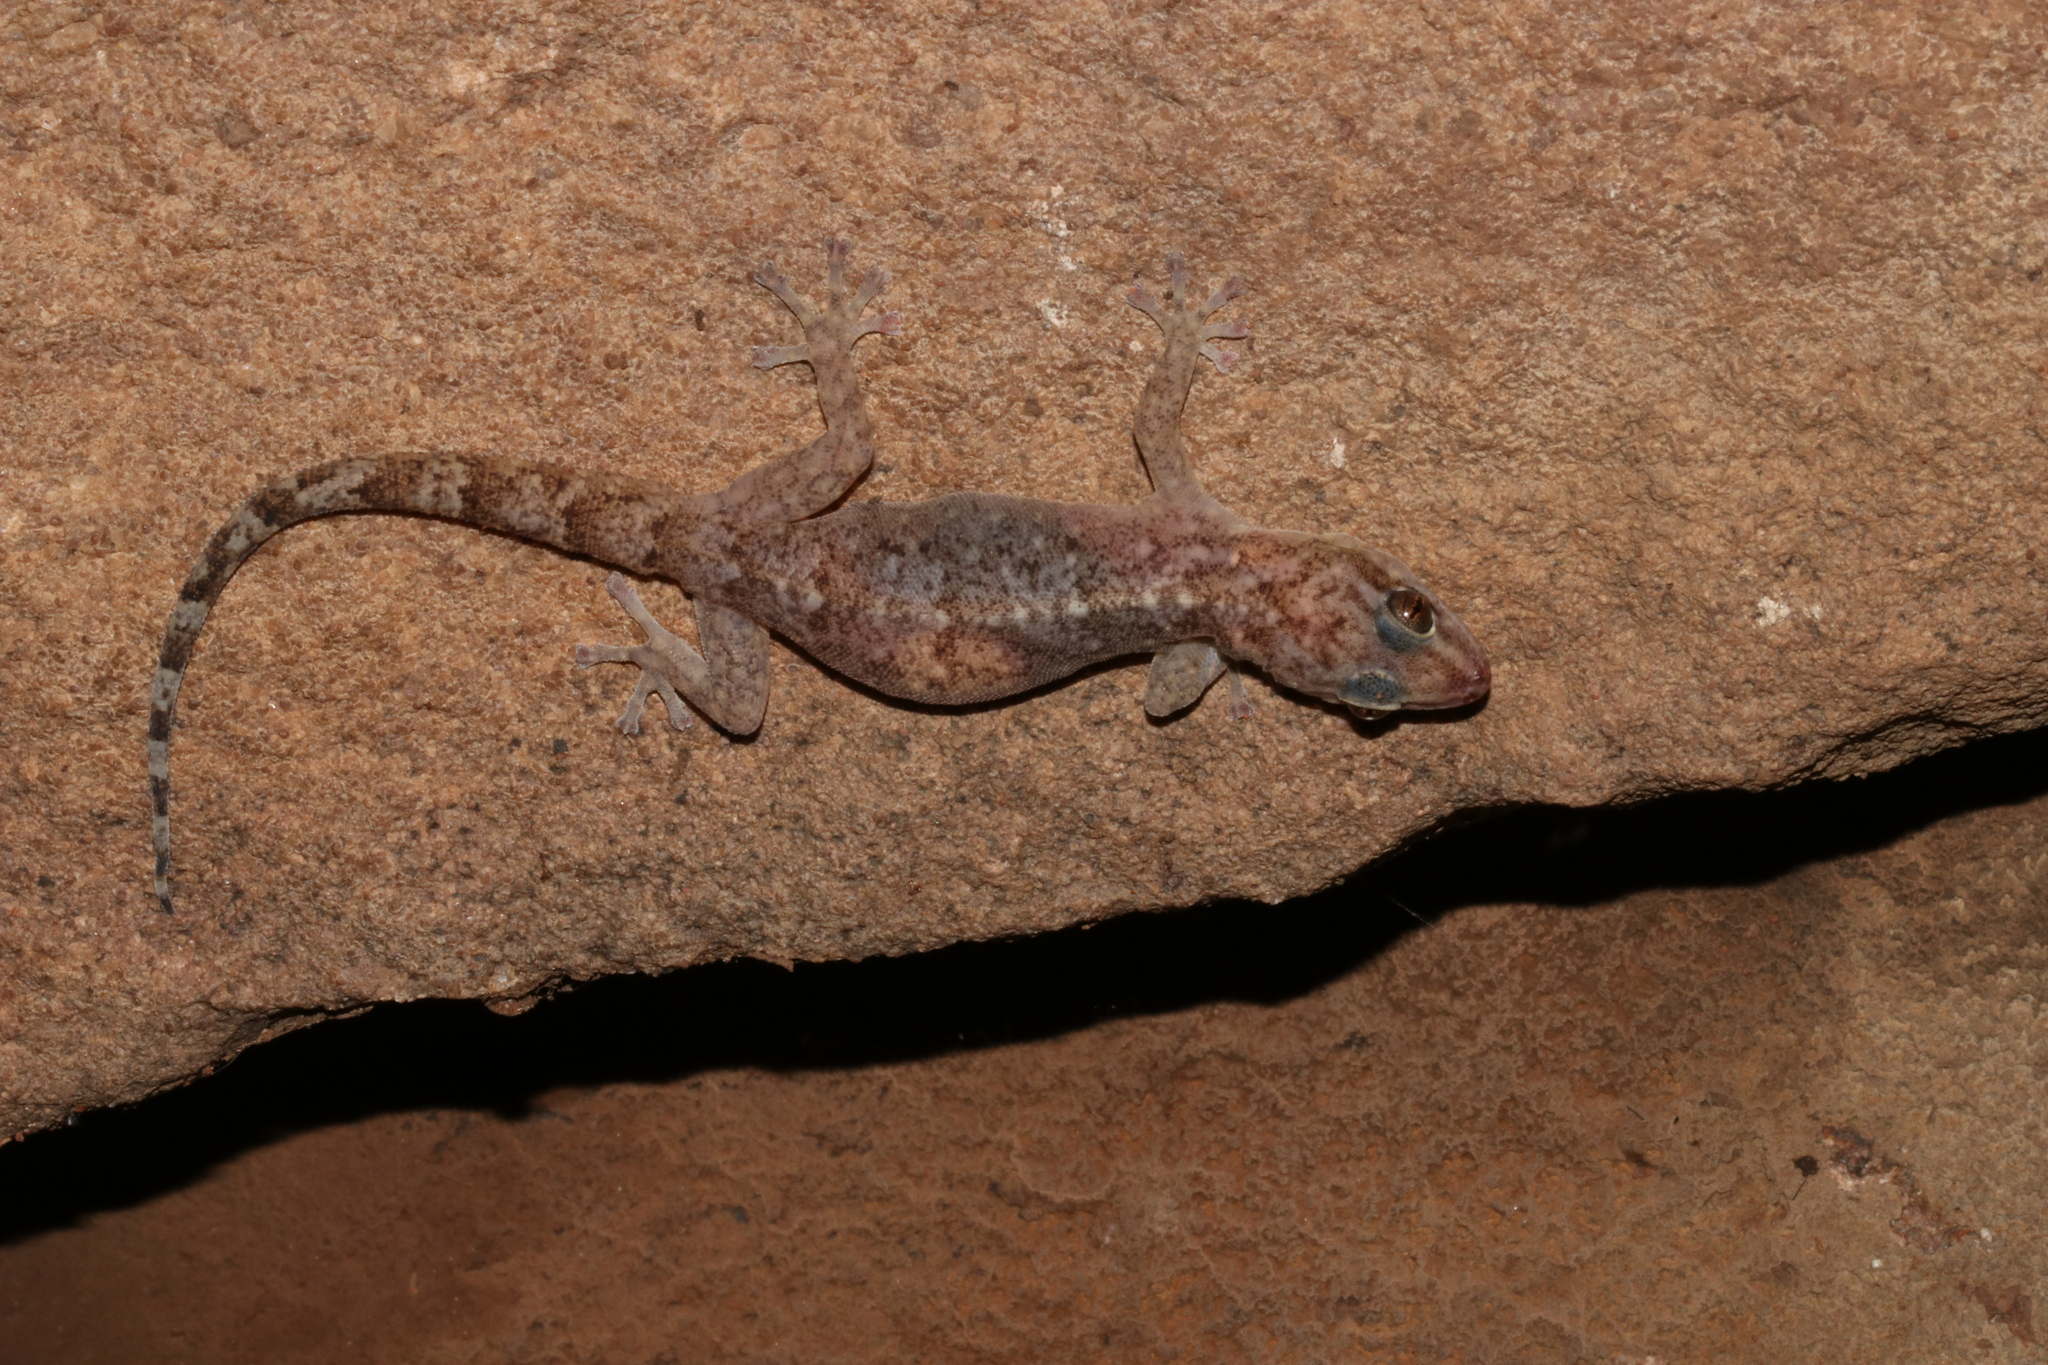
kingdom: Animalia
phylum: Chordata
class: Squamata
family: Gekkonidae
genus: Afroedura
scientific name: Afroedura pienaari
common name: Pienaar’s rock gecko
